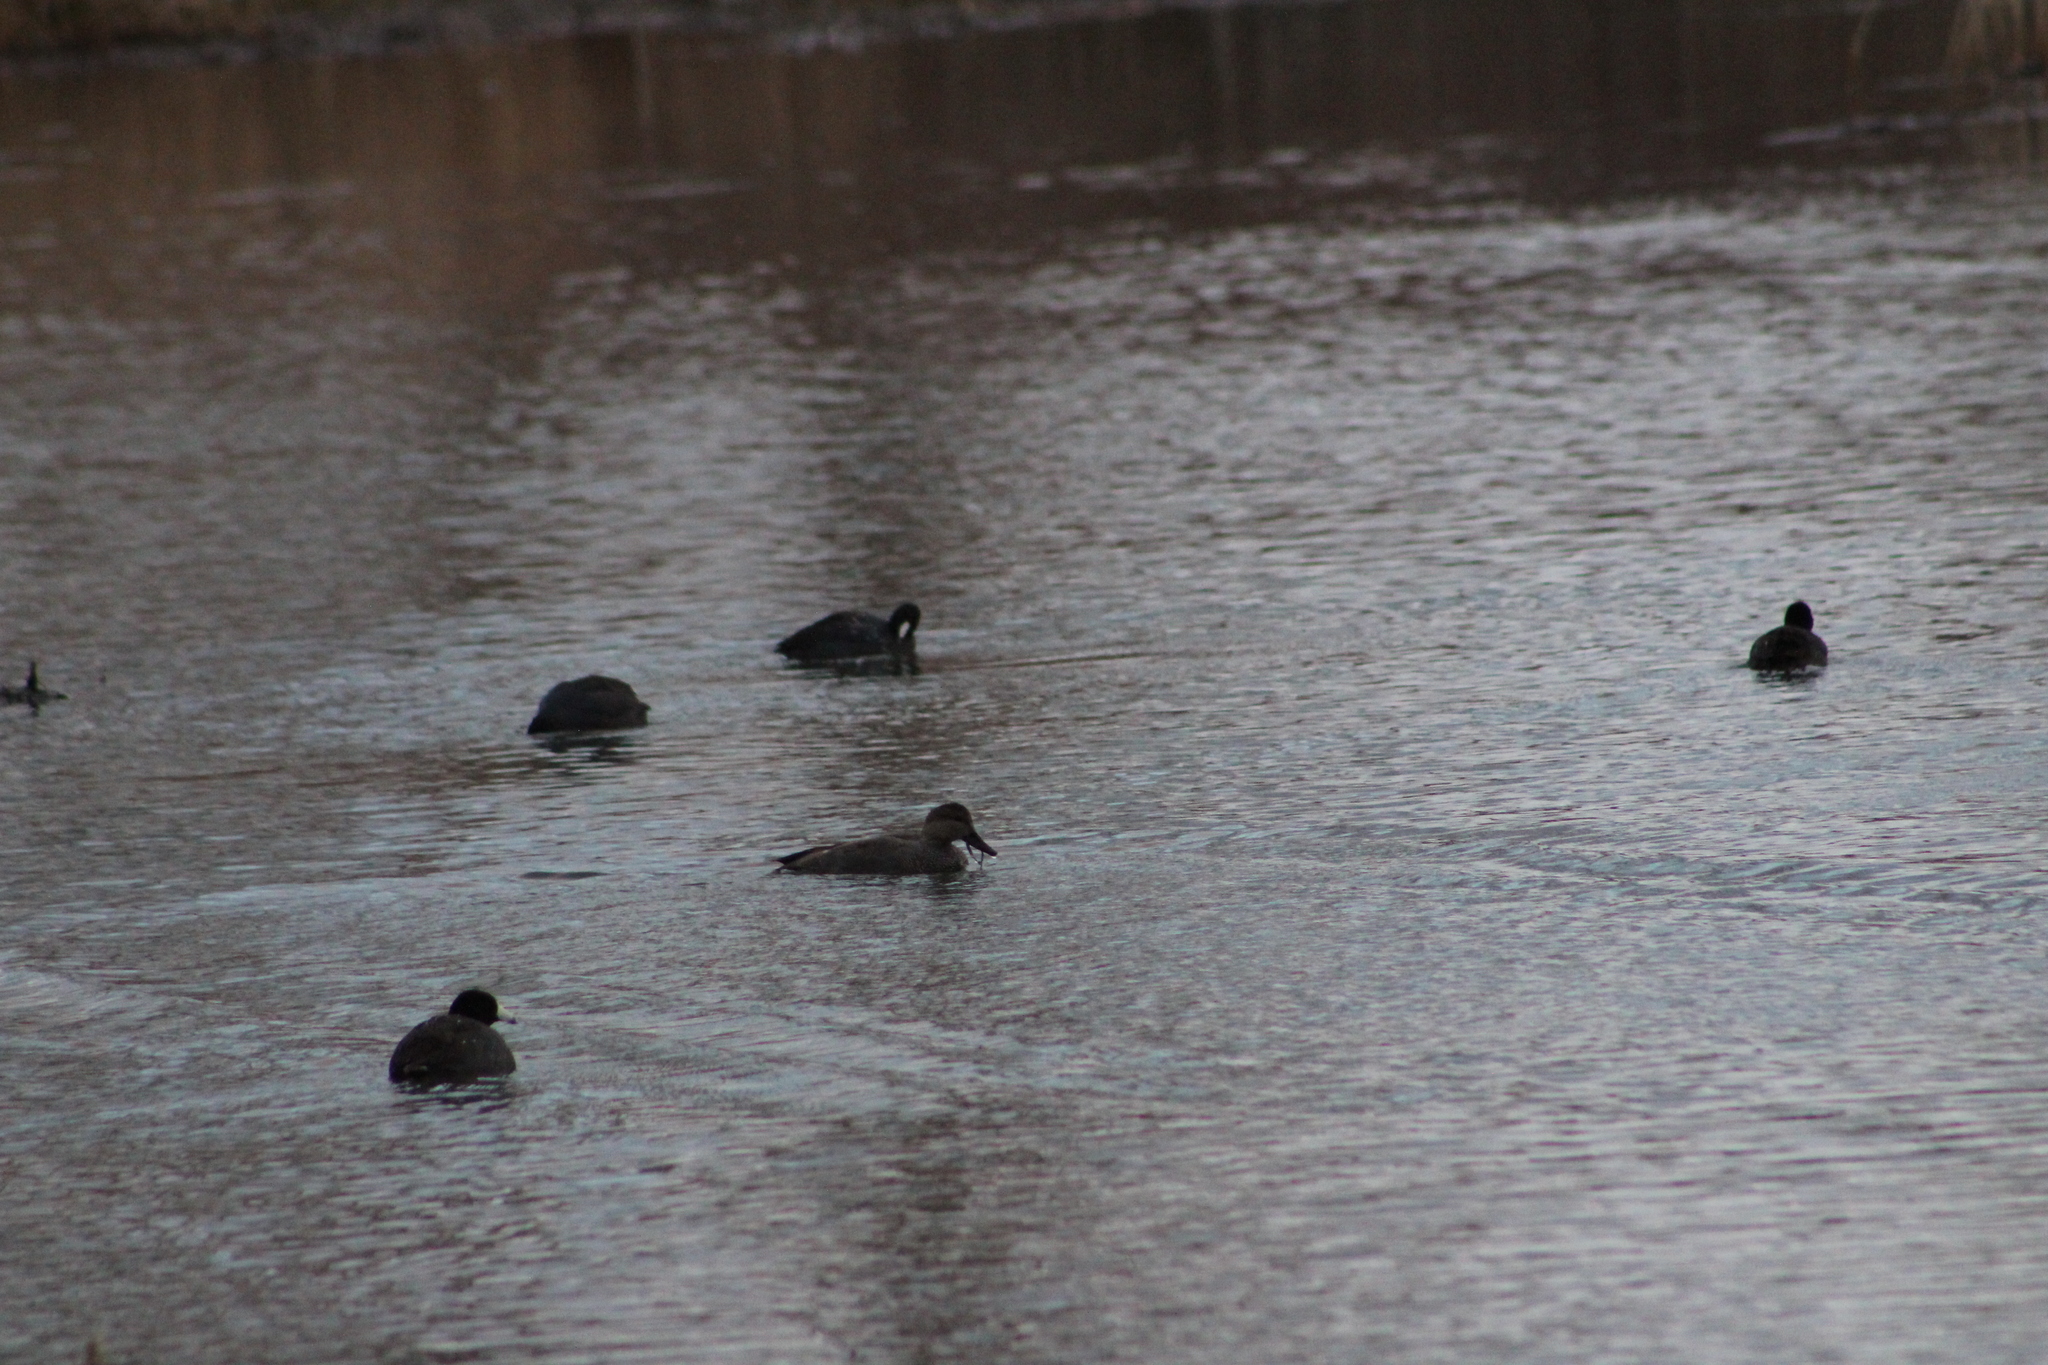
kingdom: Animalia
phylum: Chordata
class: Aves
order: Anseriformes
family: Anatidae
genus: Mareca
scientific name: Mareca strepera
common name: Gadwall
